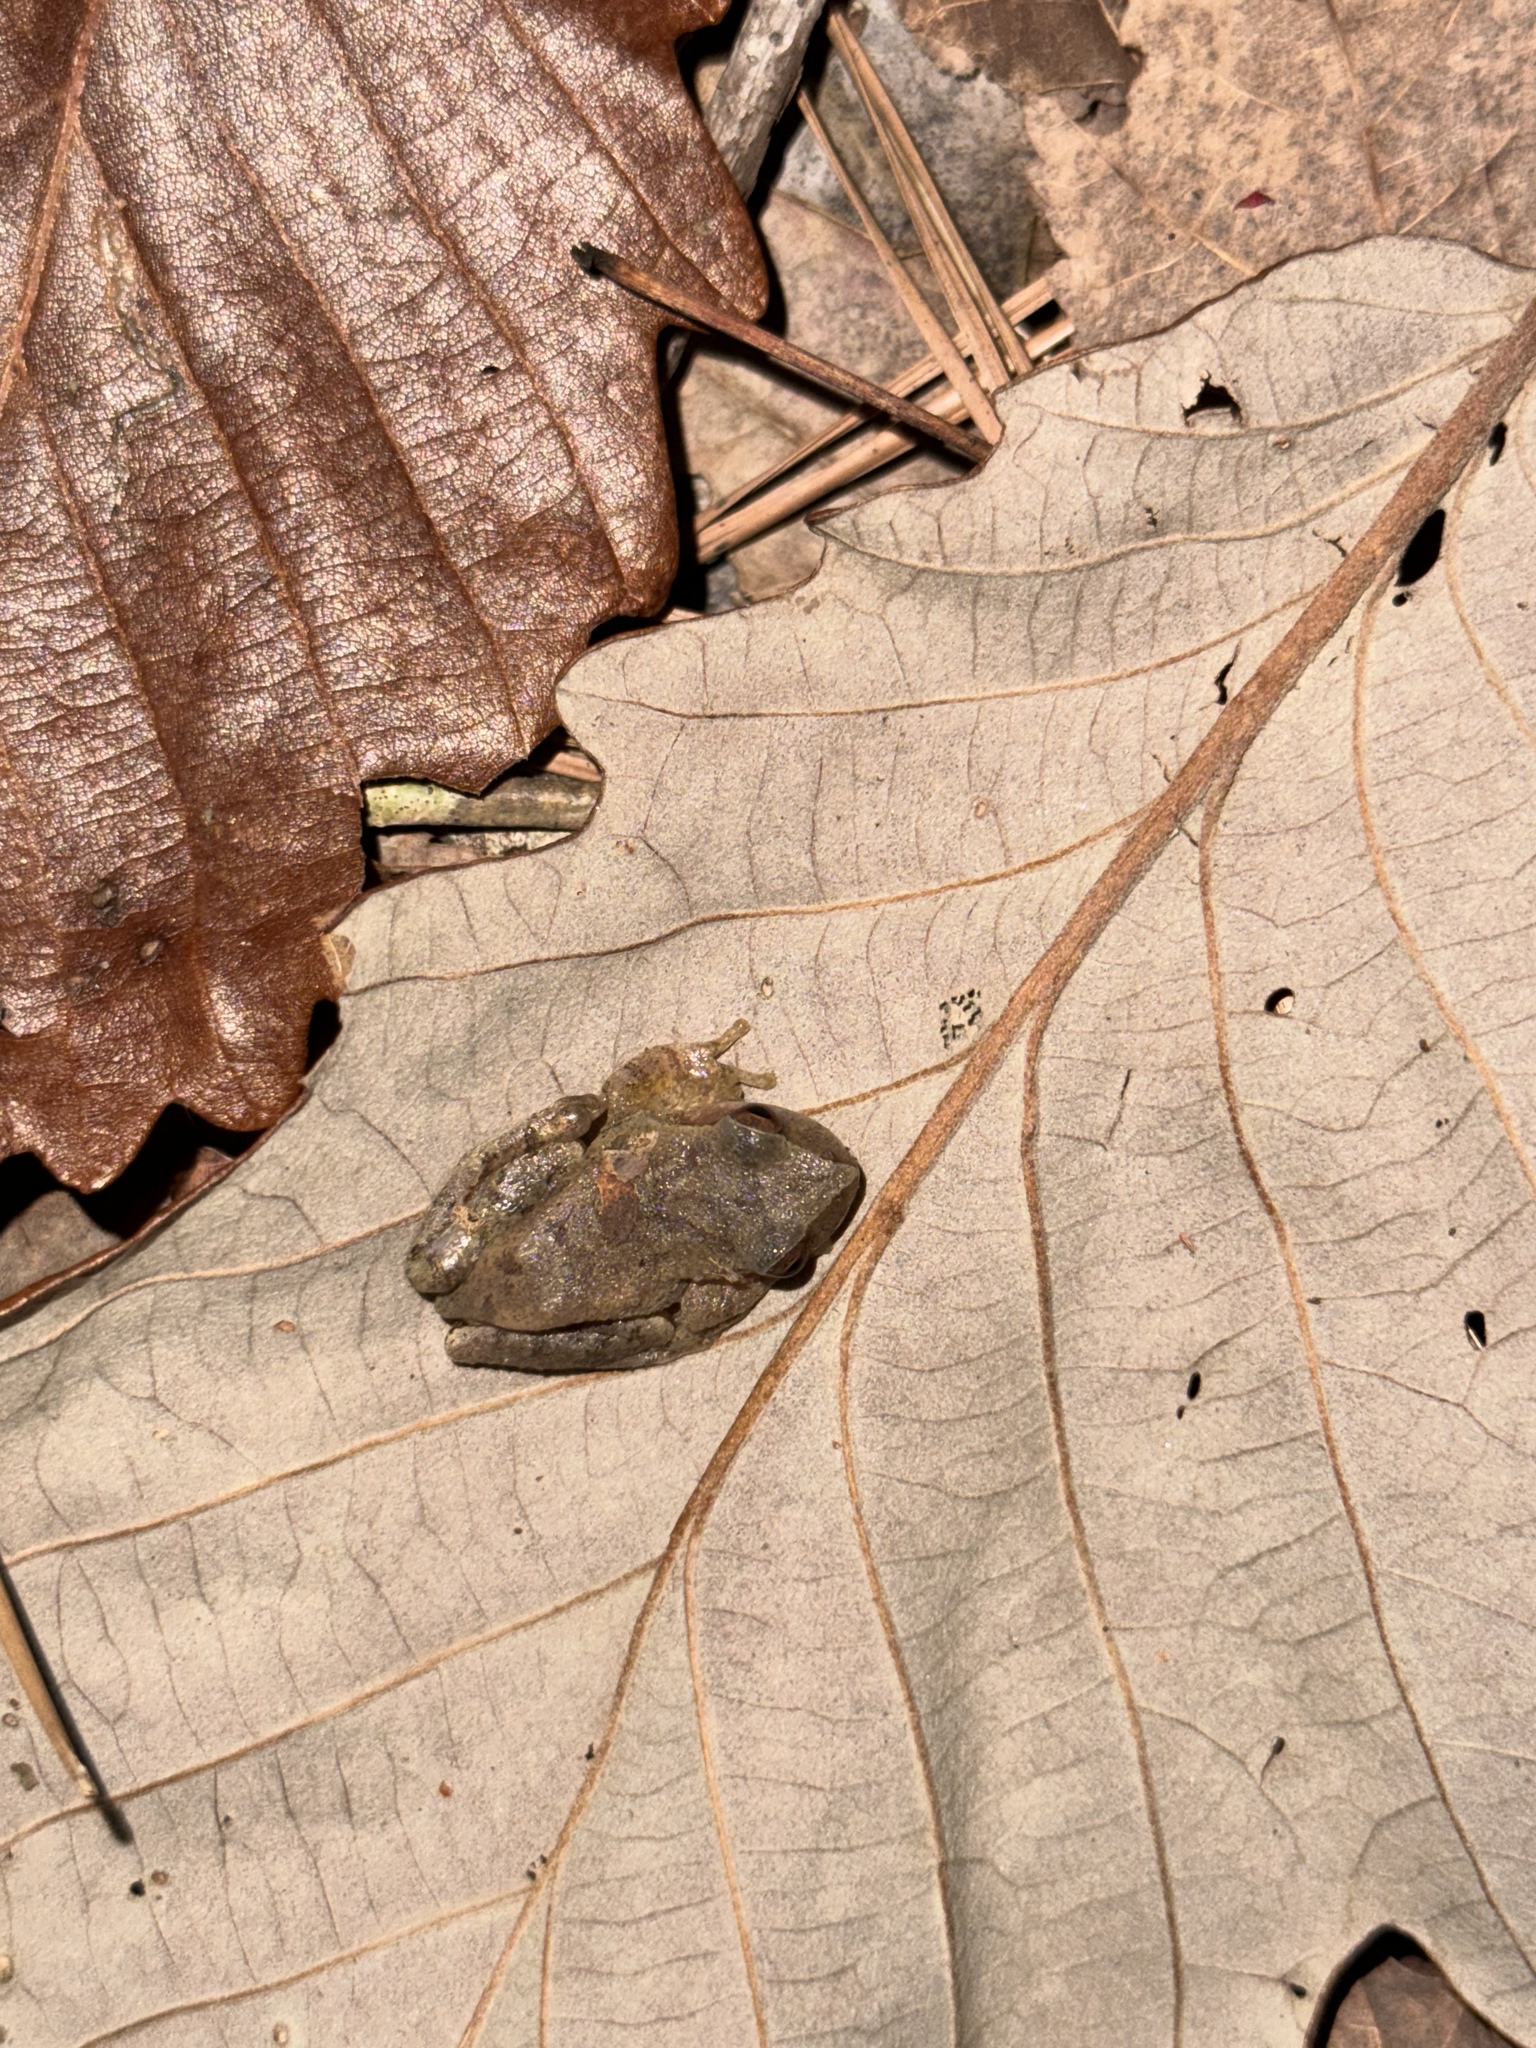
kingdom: Animalia
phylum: Chordata
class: Amphibia
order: Anura
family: Hylidae
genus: Pseudacris
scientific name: Pseudacris crucifer
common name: Spring peeper
